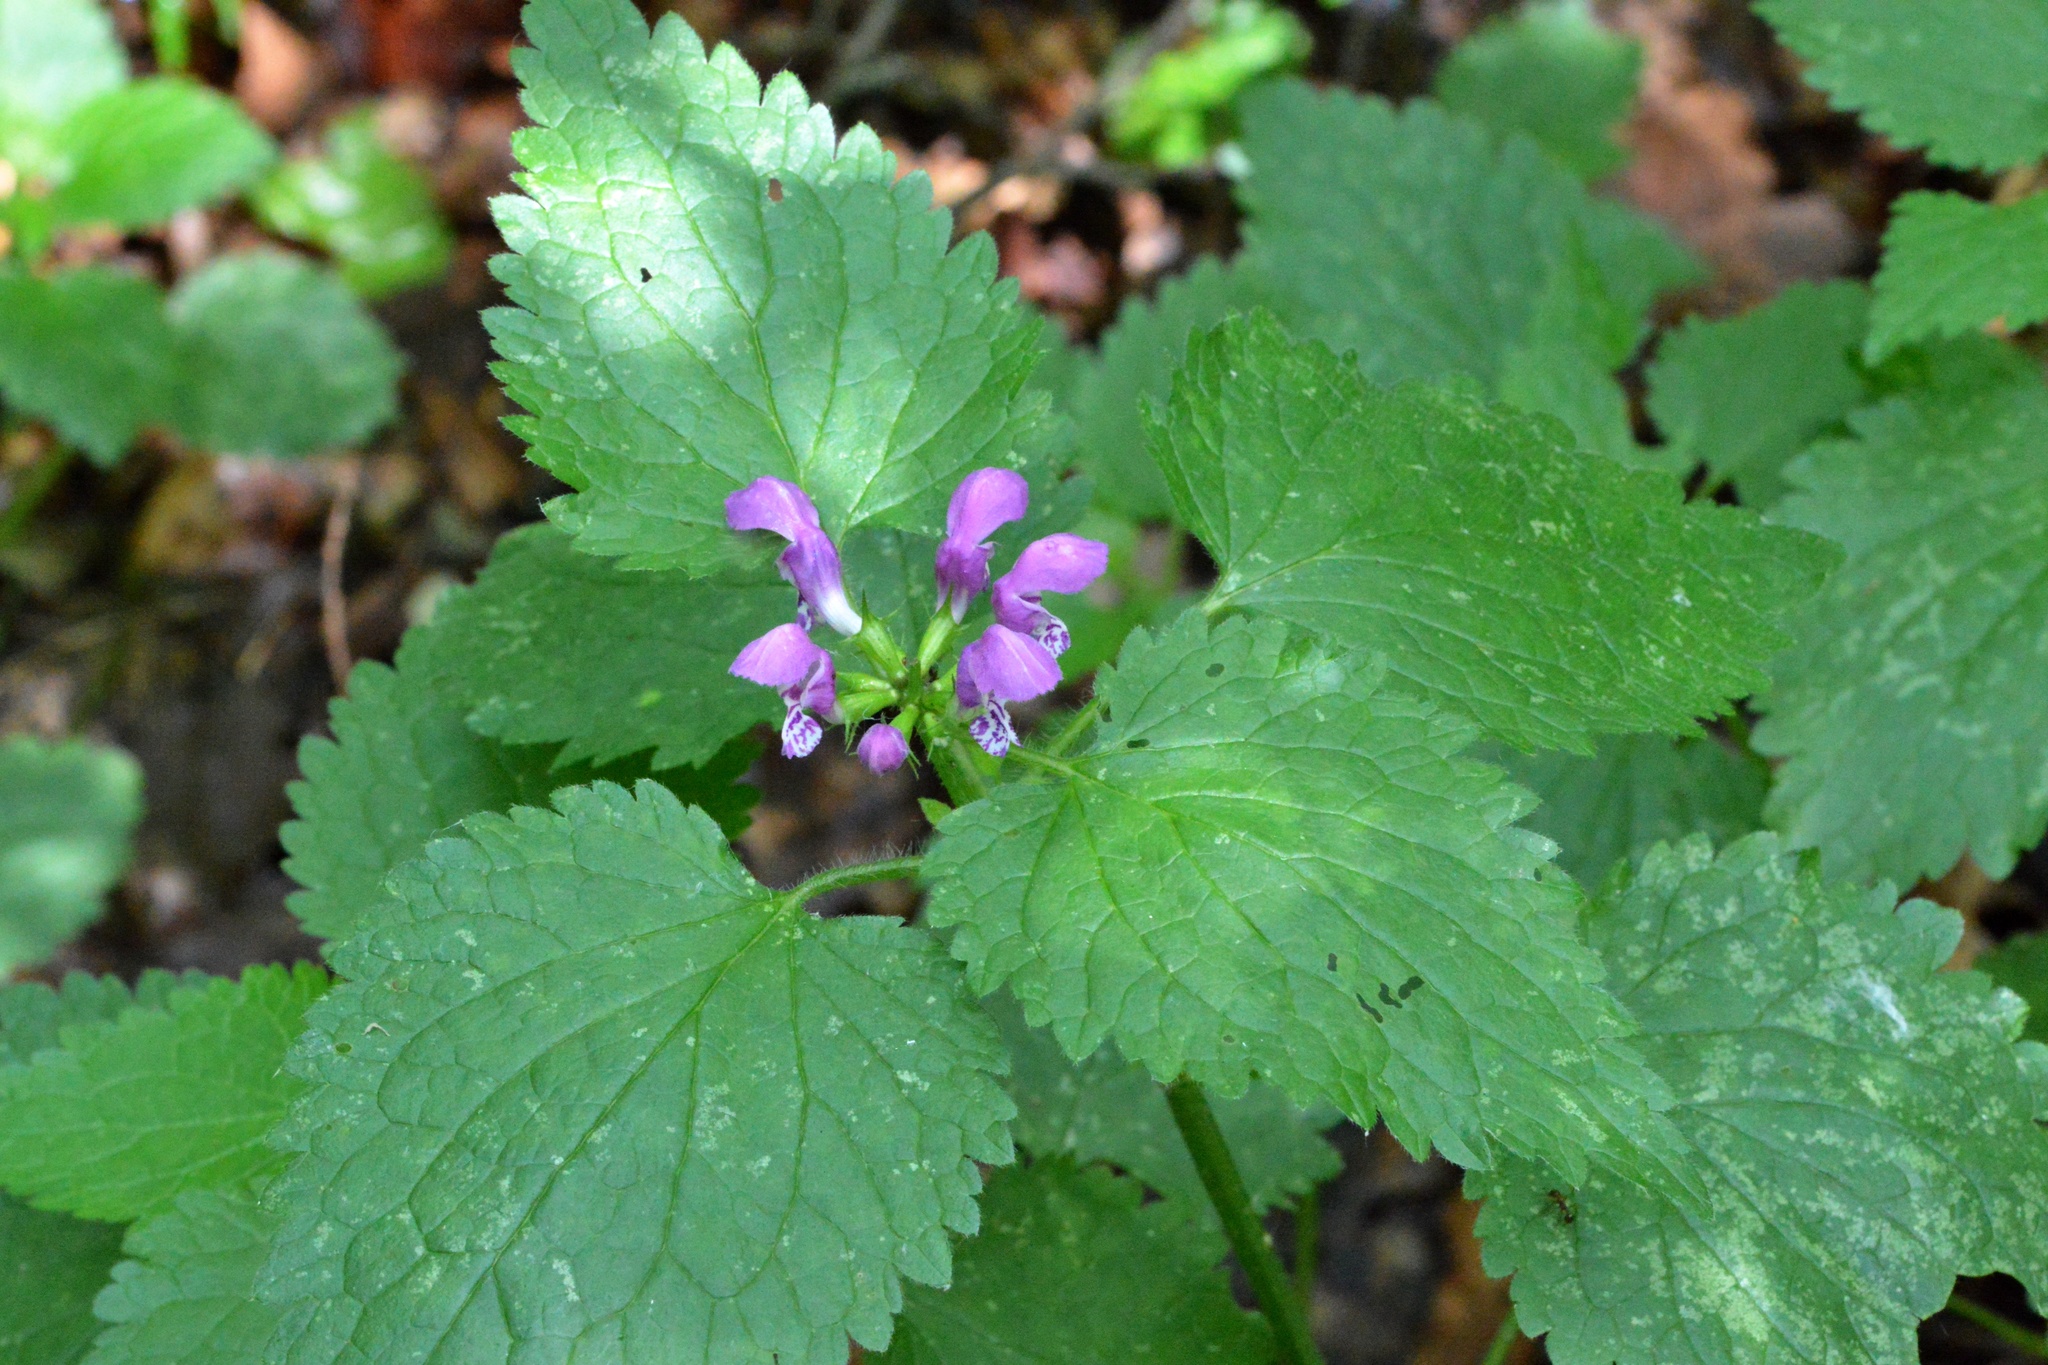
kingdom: Plantae
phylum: Tracheophyta
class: Magnoliopsida
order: Lamiales
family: Lamiaceae
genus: Lamium
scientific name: Lamium maculatum
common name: Spotted dead-nettle
